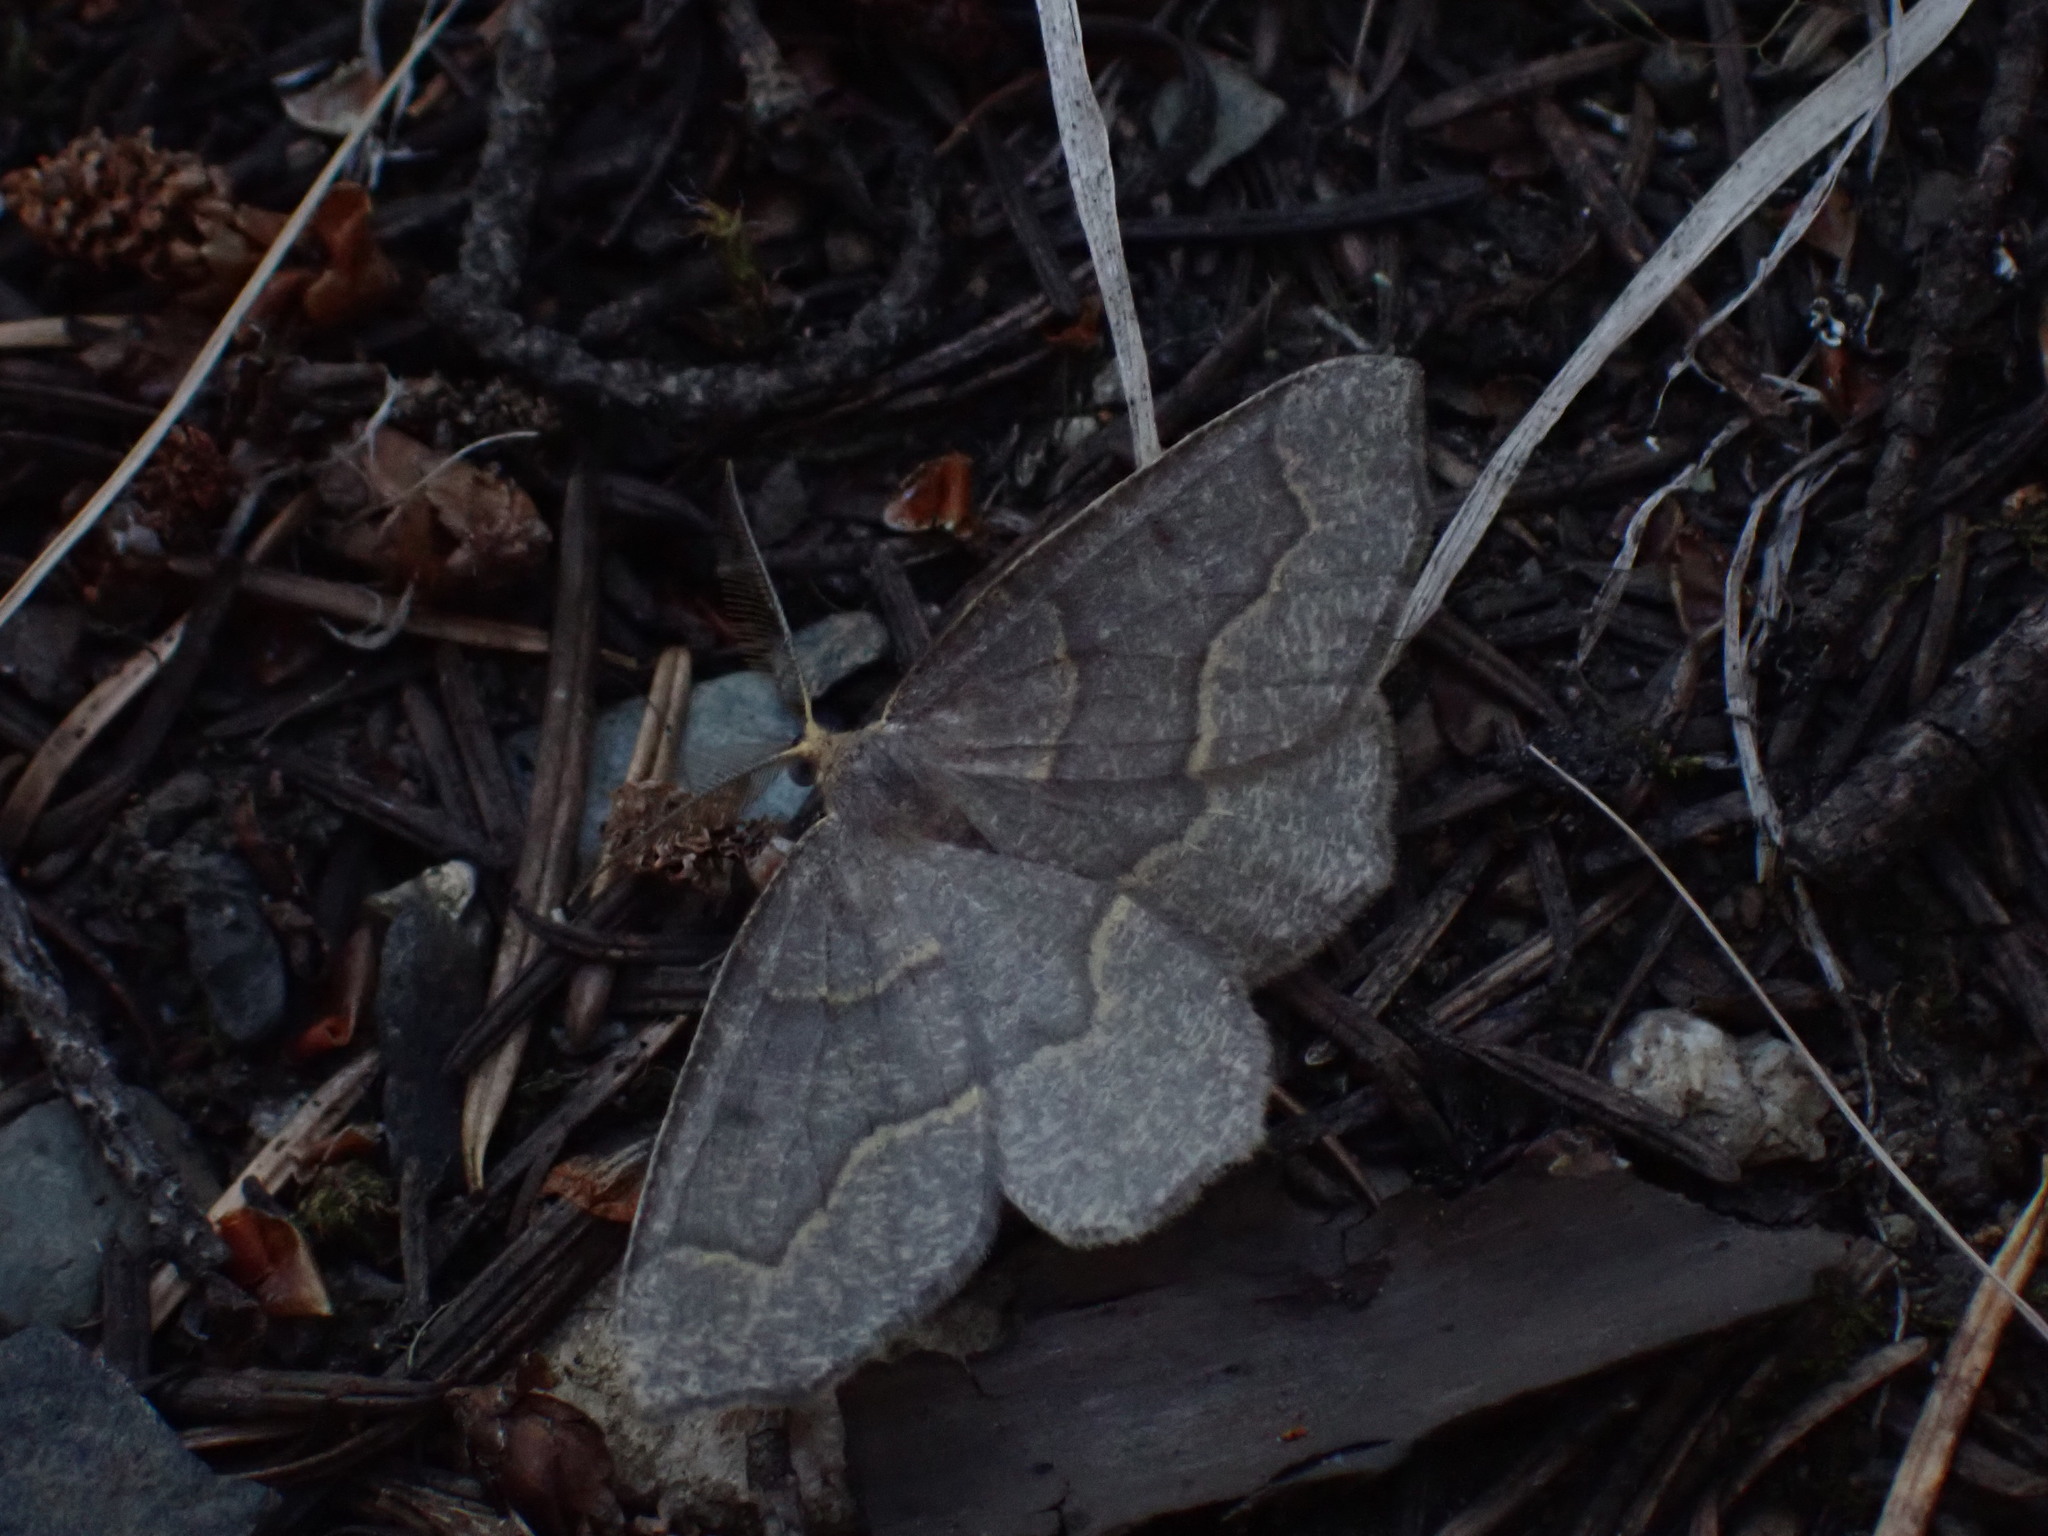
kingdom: Animalia
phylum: Arthropoda
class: Insecta
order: Lepidoptera
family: Geometridae
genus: Lambdina
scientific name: Lambdina fiscellaria
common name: Hemlock looper
